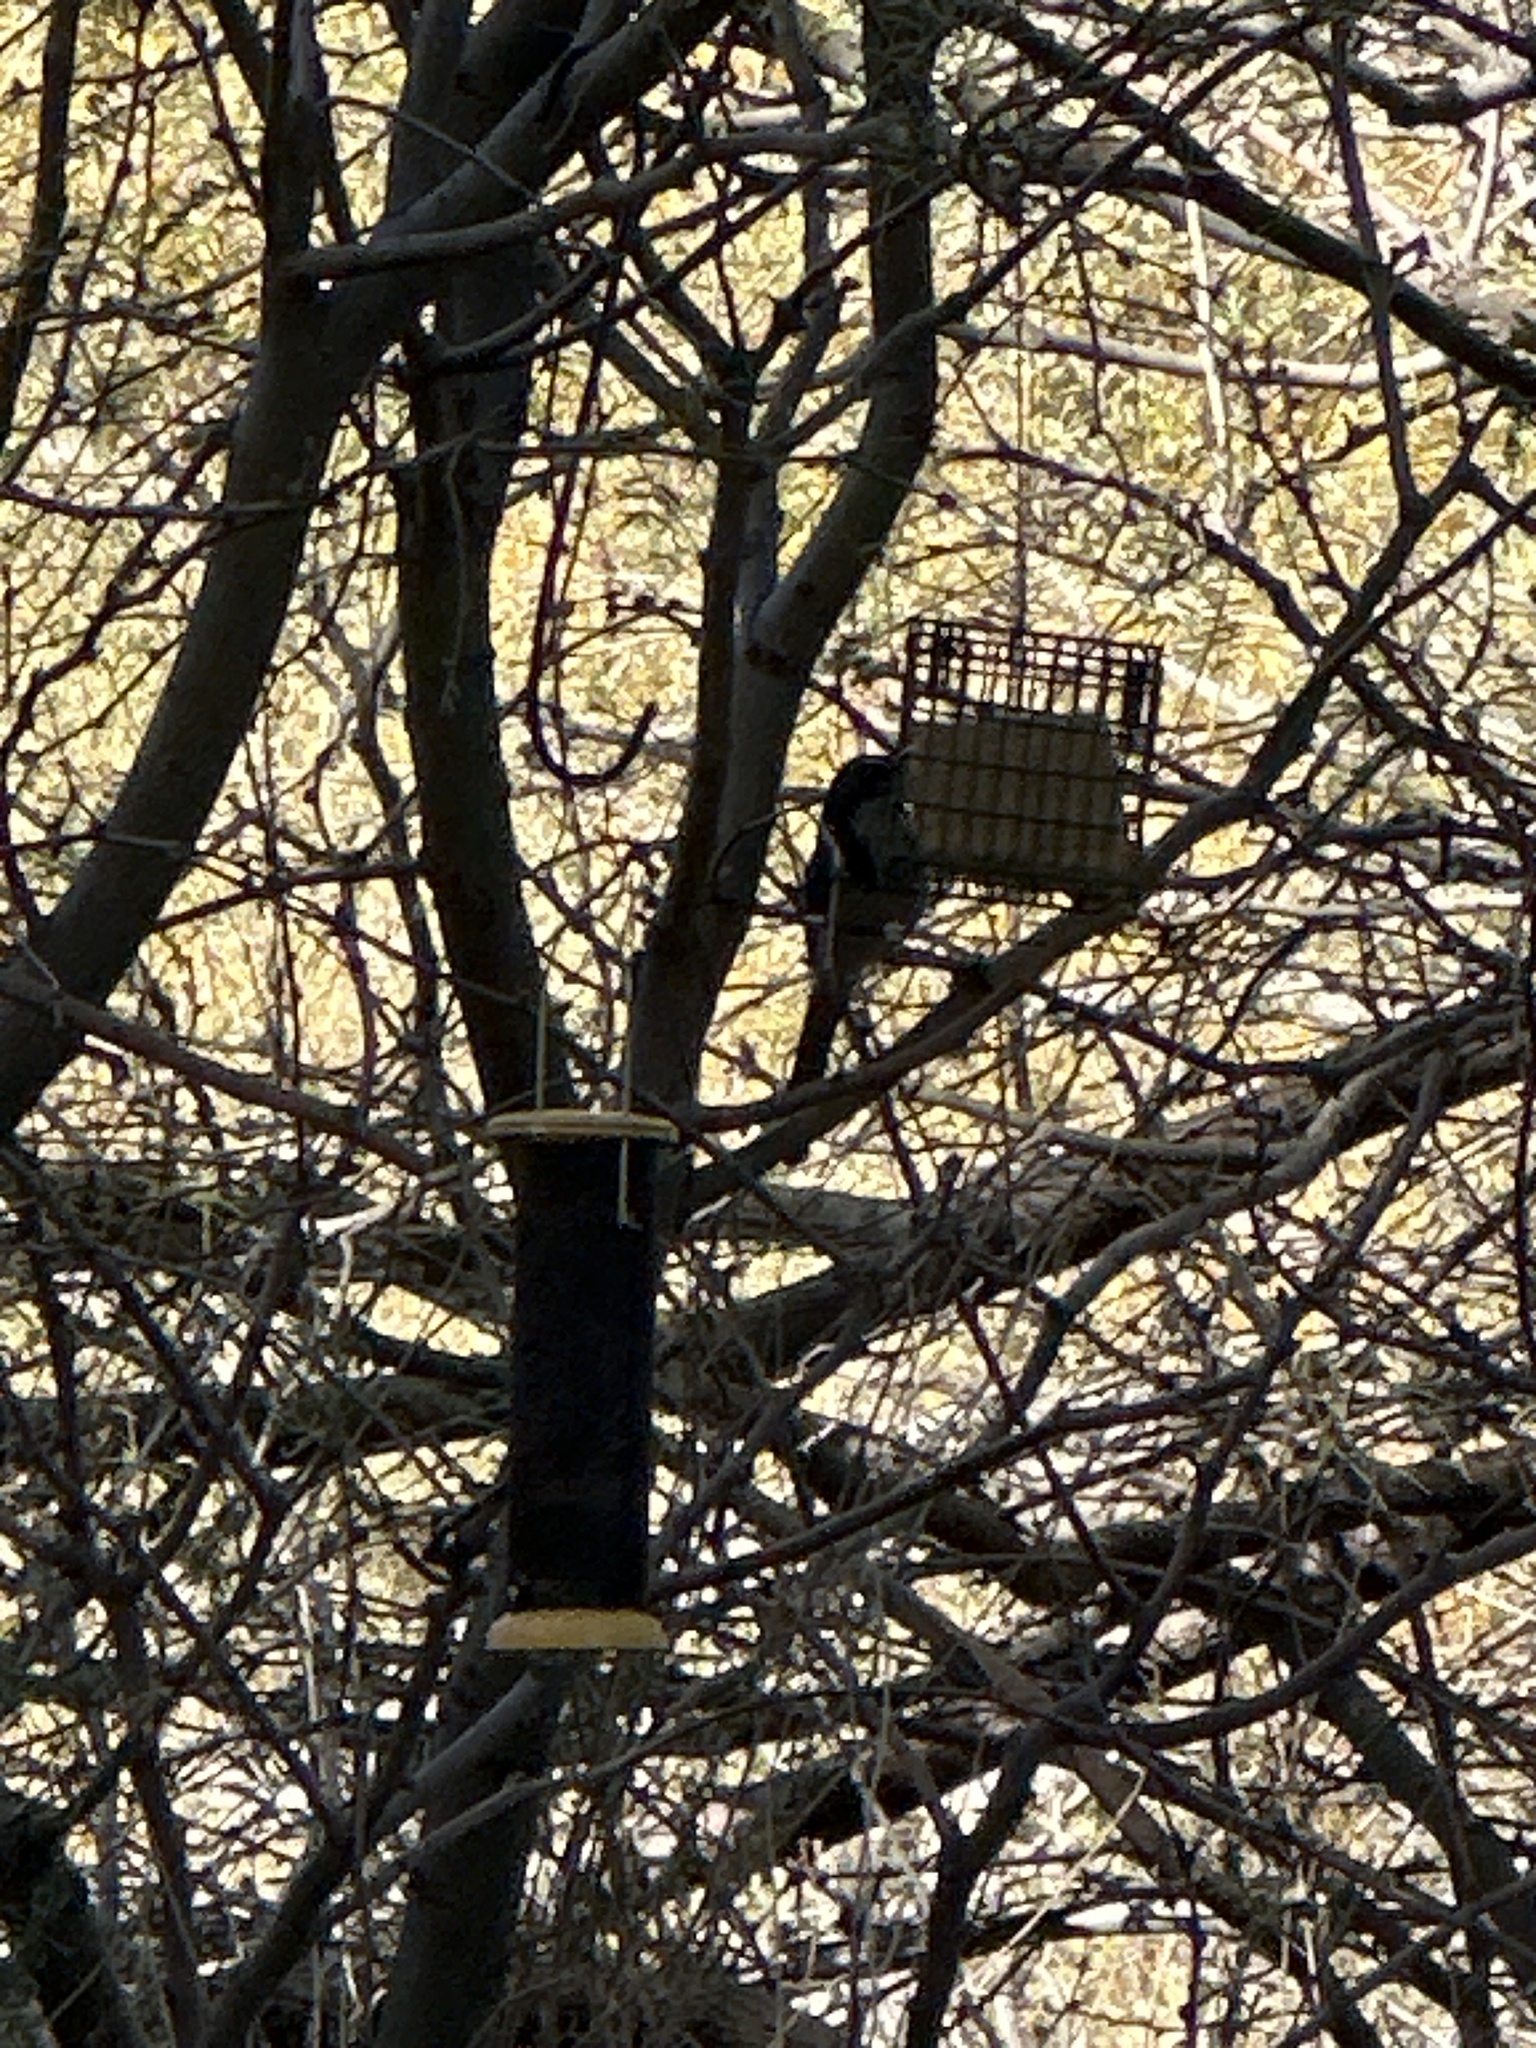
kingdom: Animalia
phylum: Chordata
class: Aves
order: Passeriformes
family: Corvidae
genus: Aphelocoma
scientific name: Aphelocoma californica
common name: California scrub-jay
